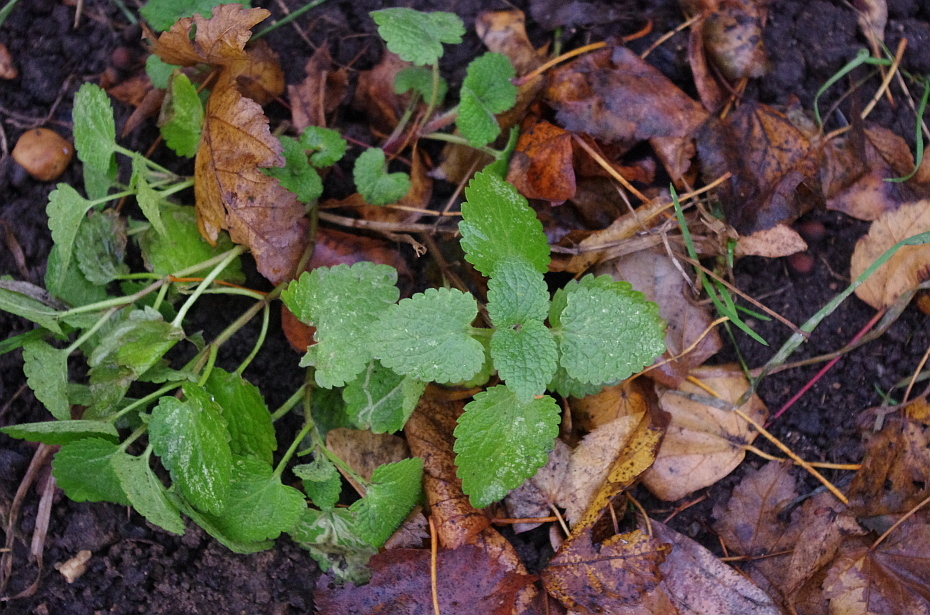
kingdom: Plantae
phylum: Tracheophyta
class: Magnoliopsida
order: Lamiales
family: Lamiaceae
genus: Lamium
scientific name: Lamium album
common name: White dead-nettle
